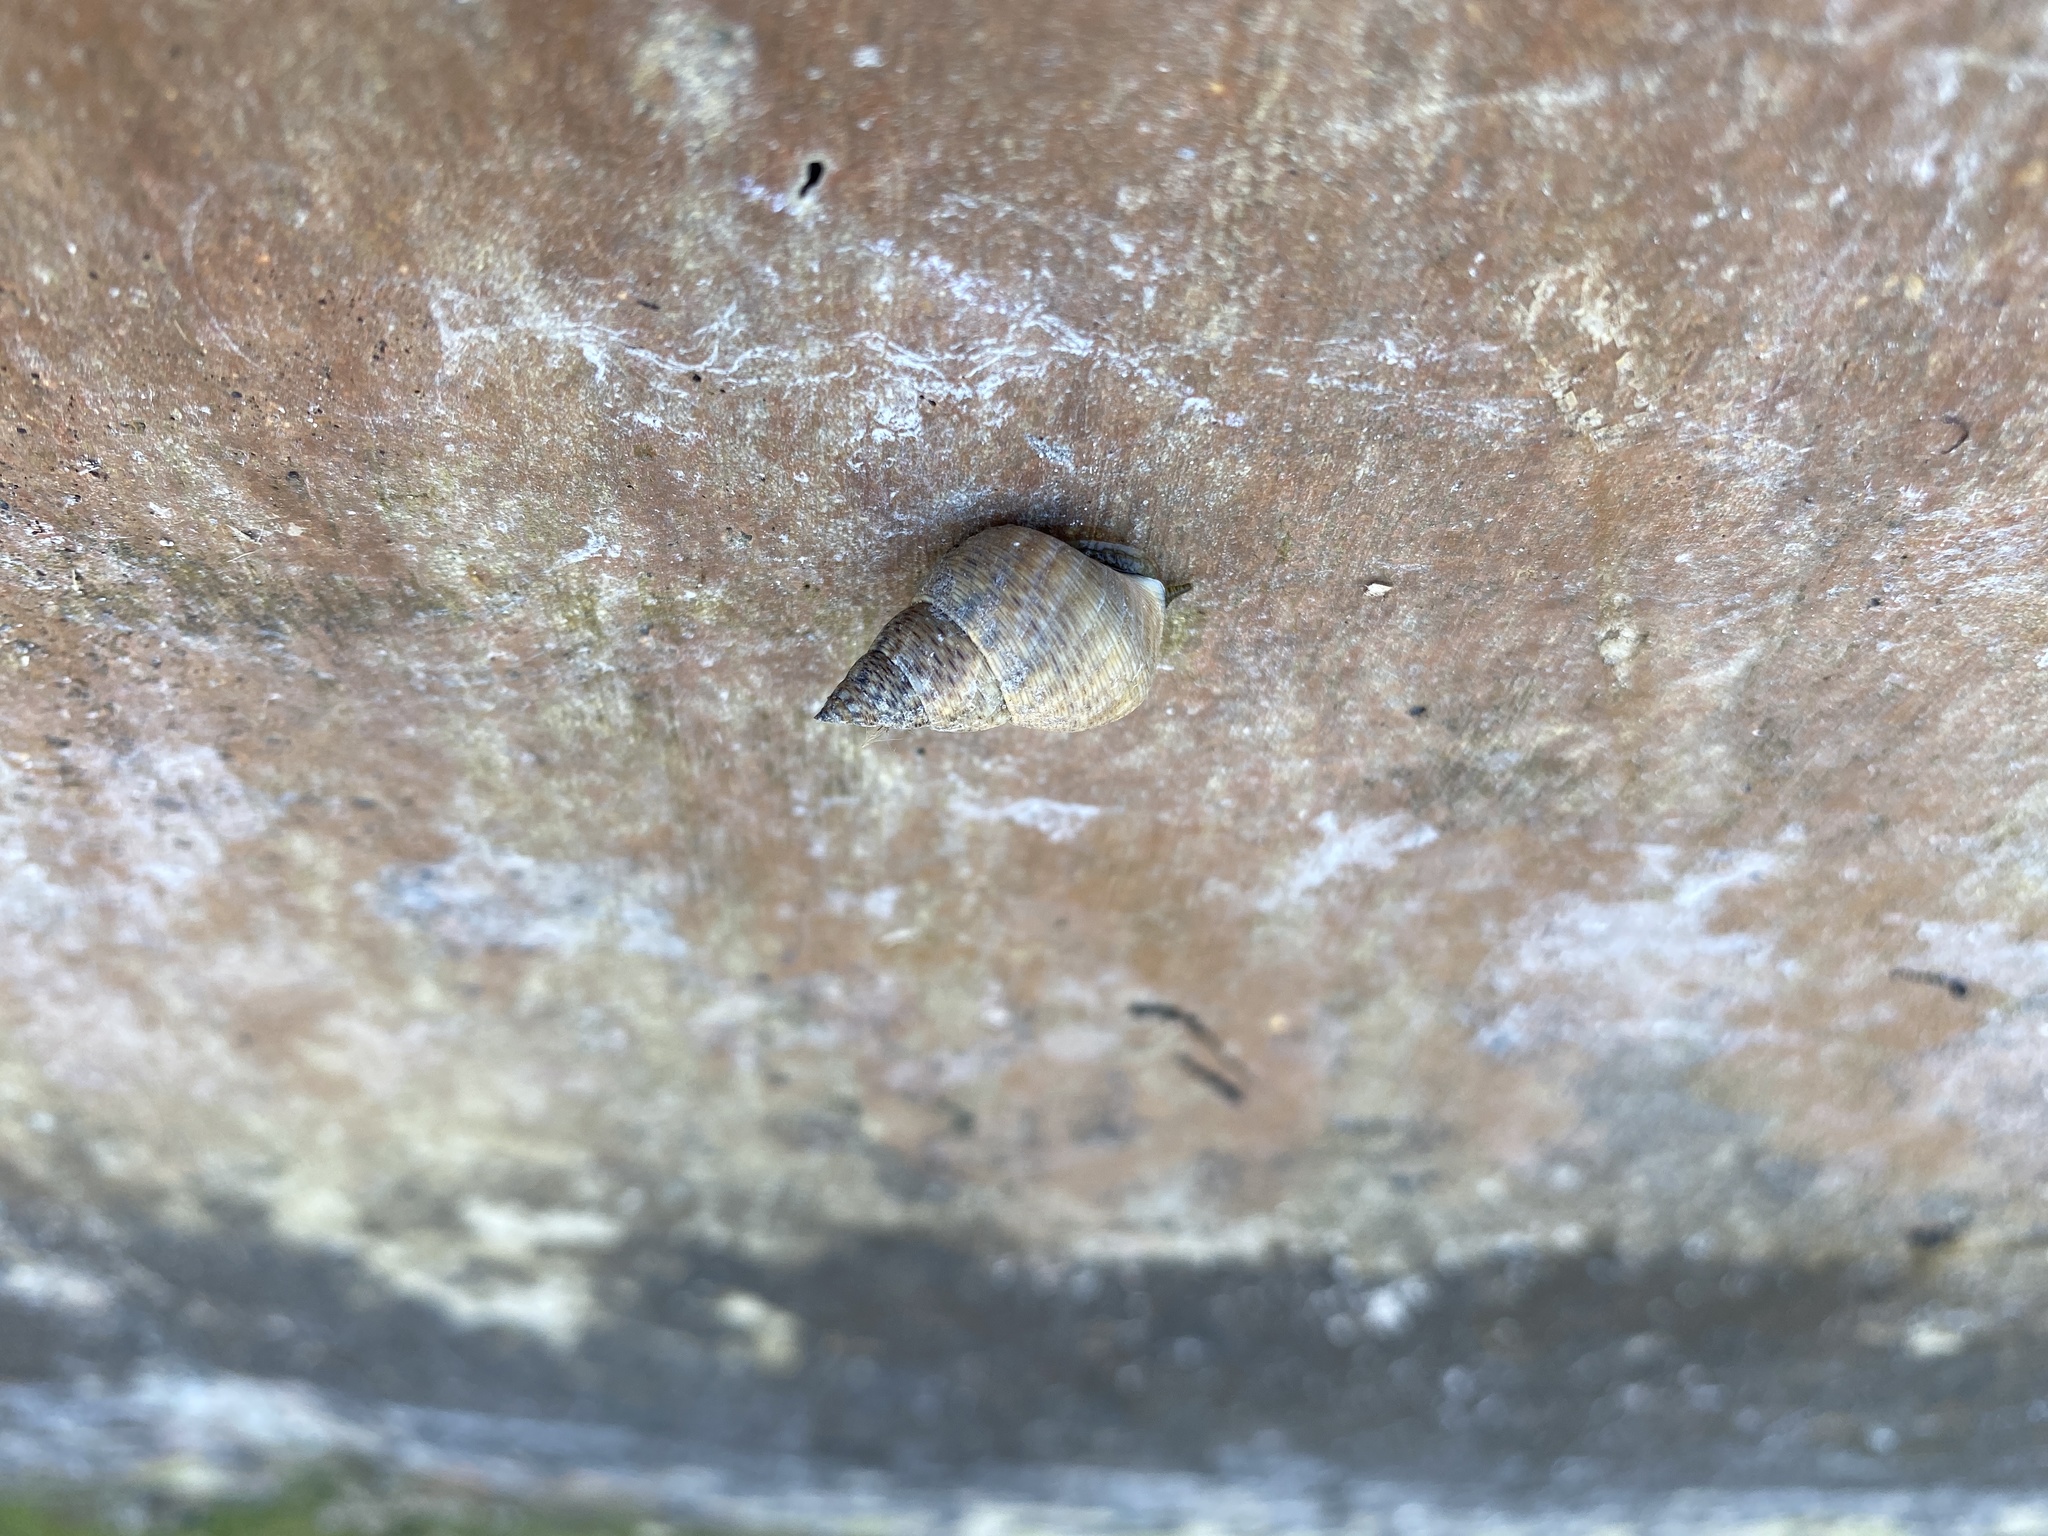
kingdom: Animalia
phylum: Mollusca
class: Gastropoda
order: Littorinimorpha
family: Littorinidae
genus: Littoraria
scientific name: Littoraria angulifera
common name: Mangrove periwinkle
